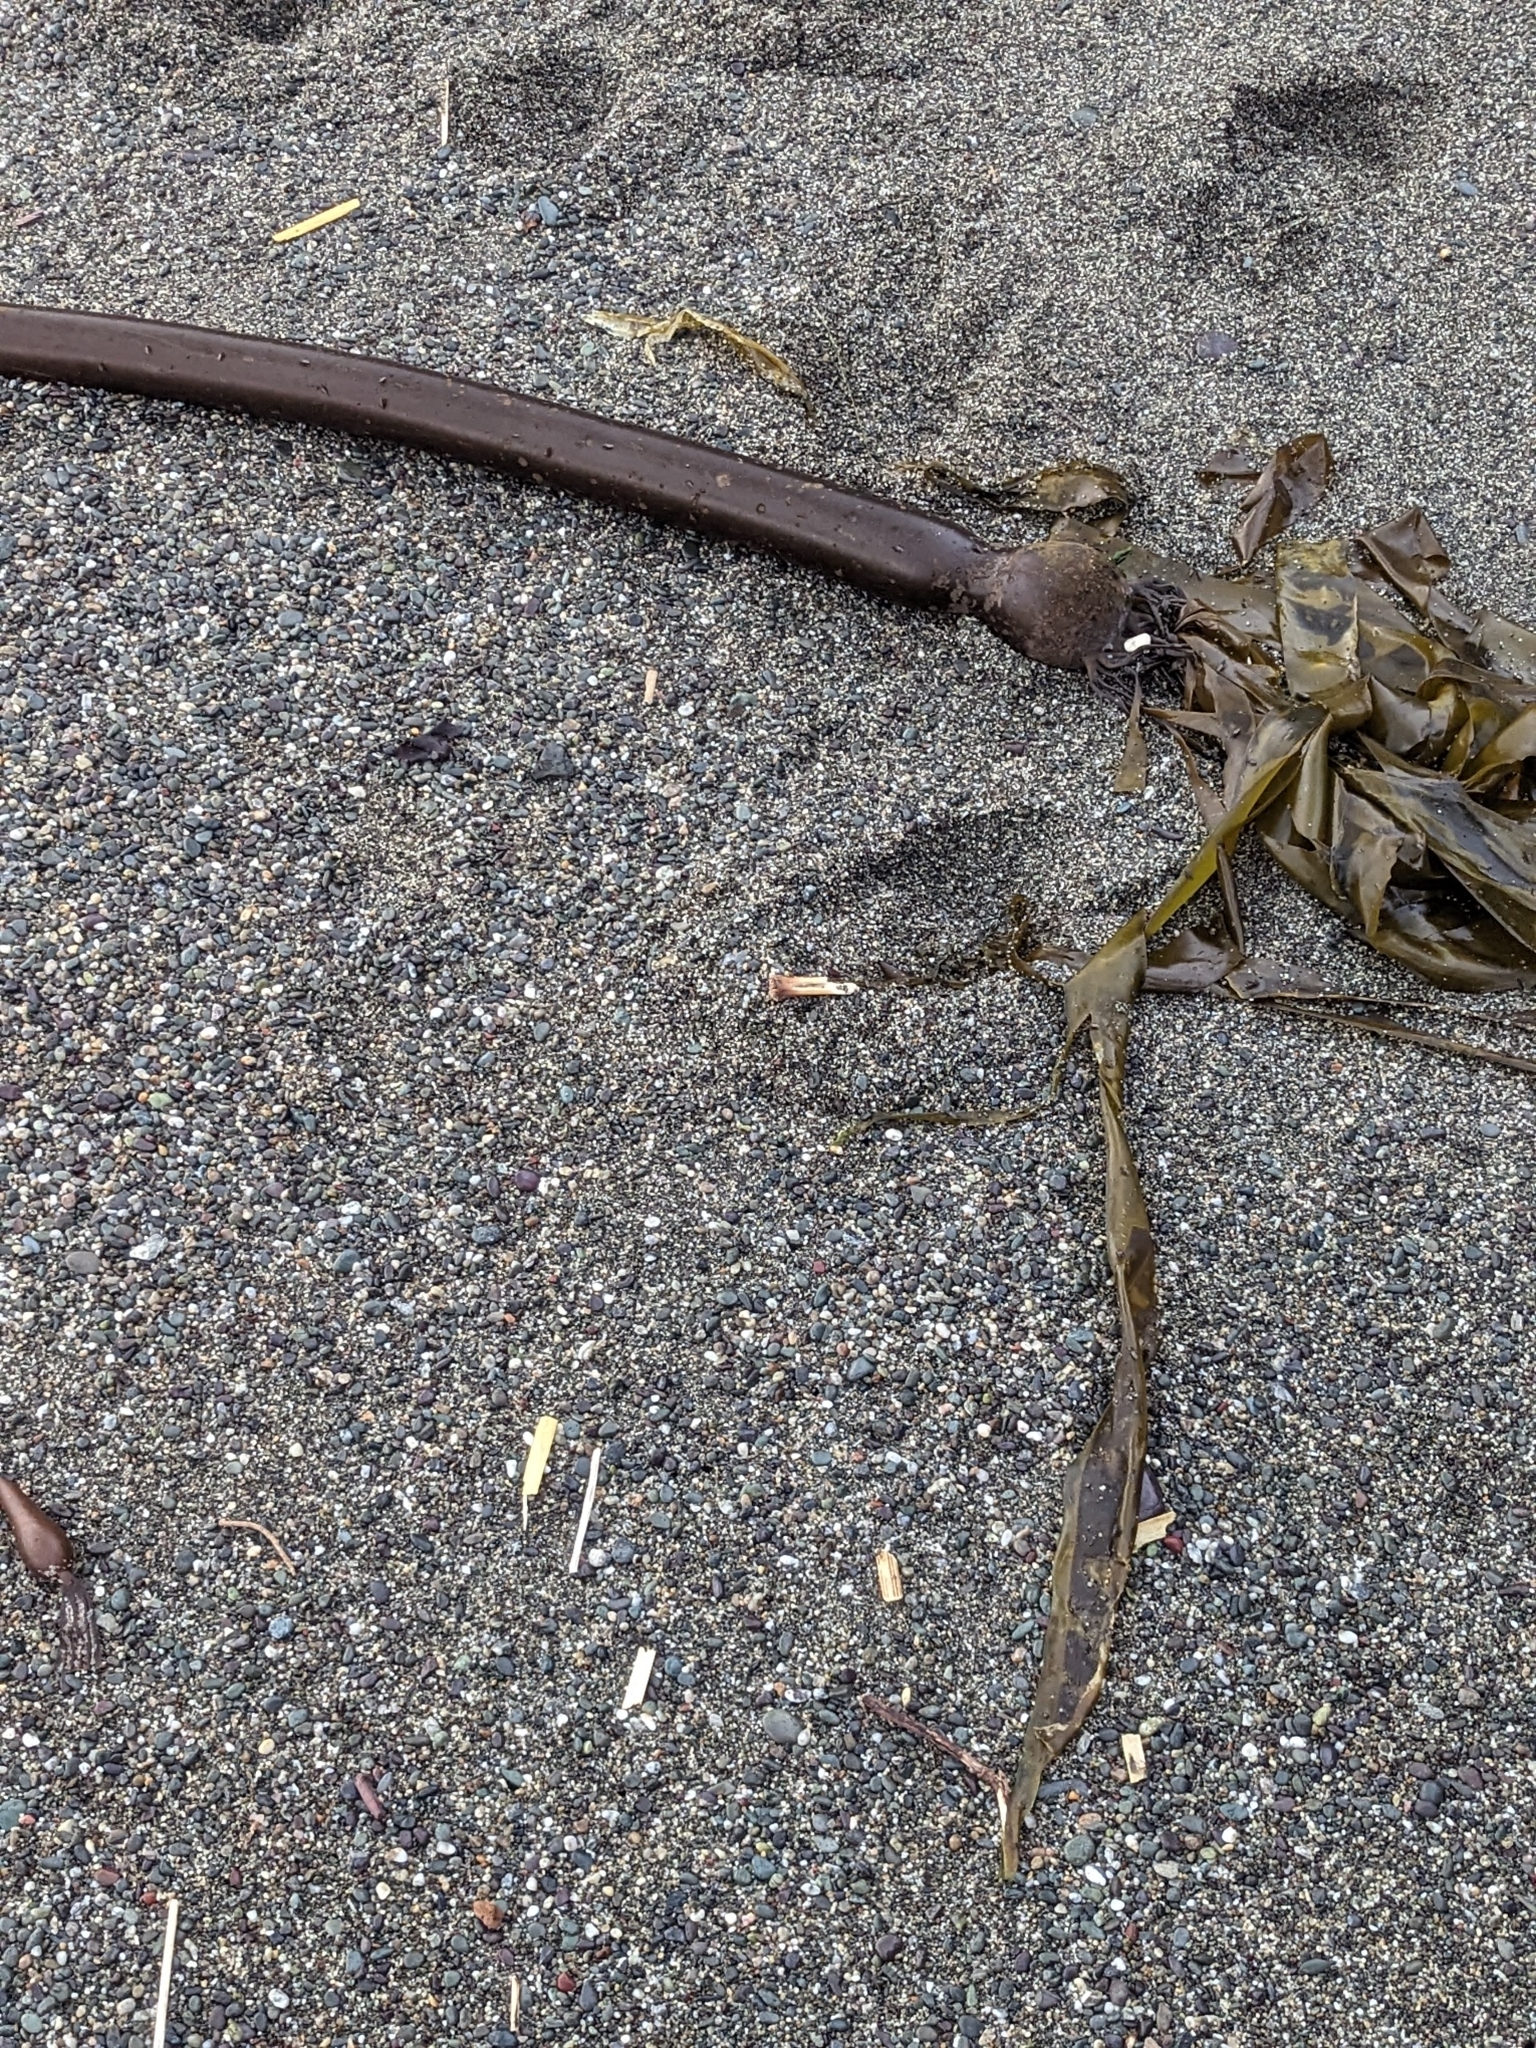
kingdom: Chromista
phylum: Ochrophyta
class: Phaeophyceae
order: Laminariales
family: Laminariaceae
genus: Nereocystis
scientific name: Nereocystis luetkeana
